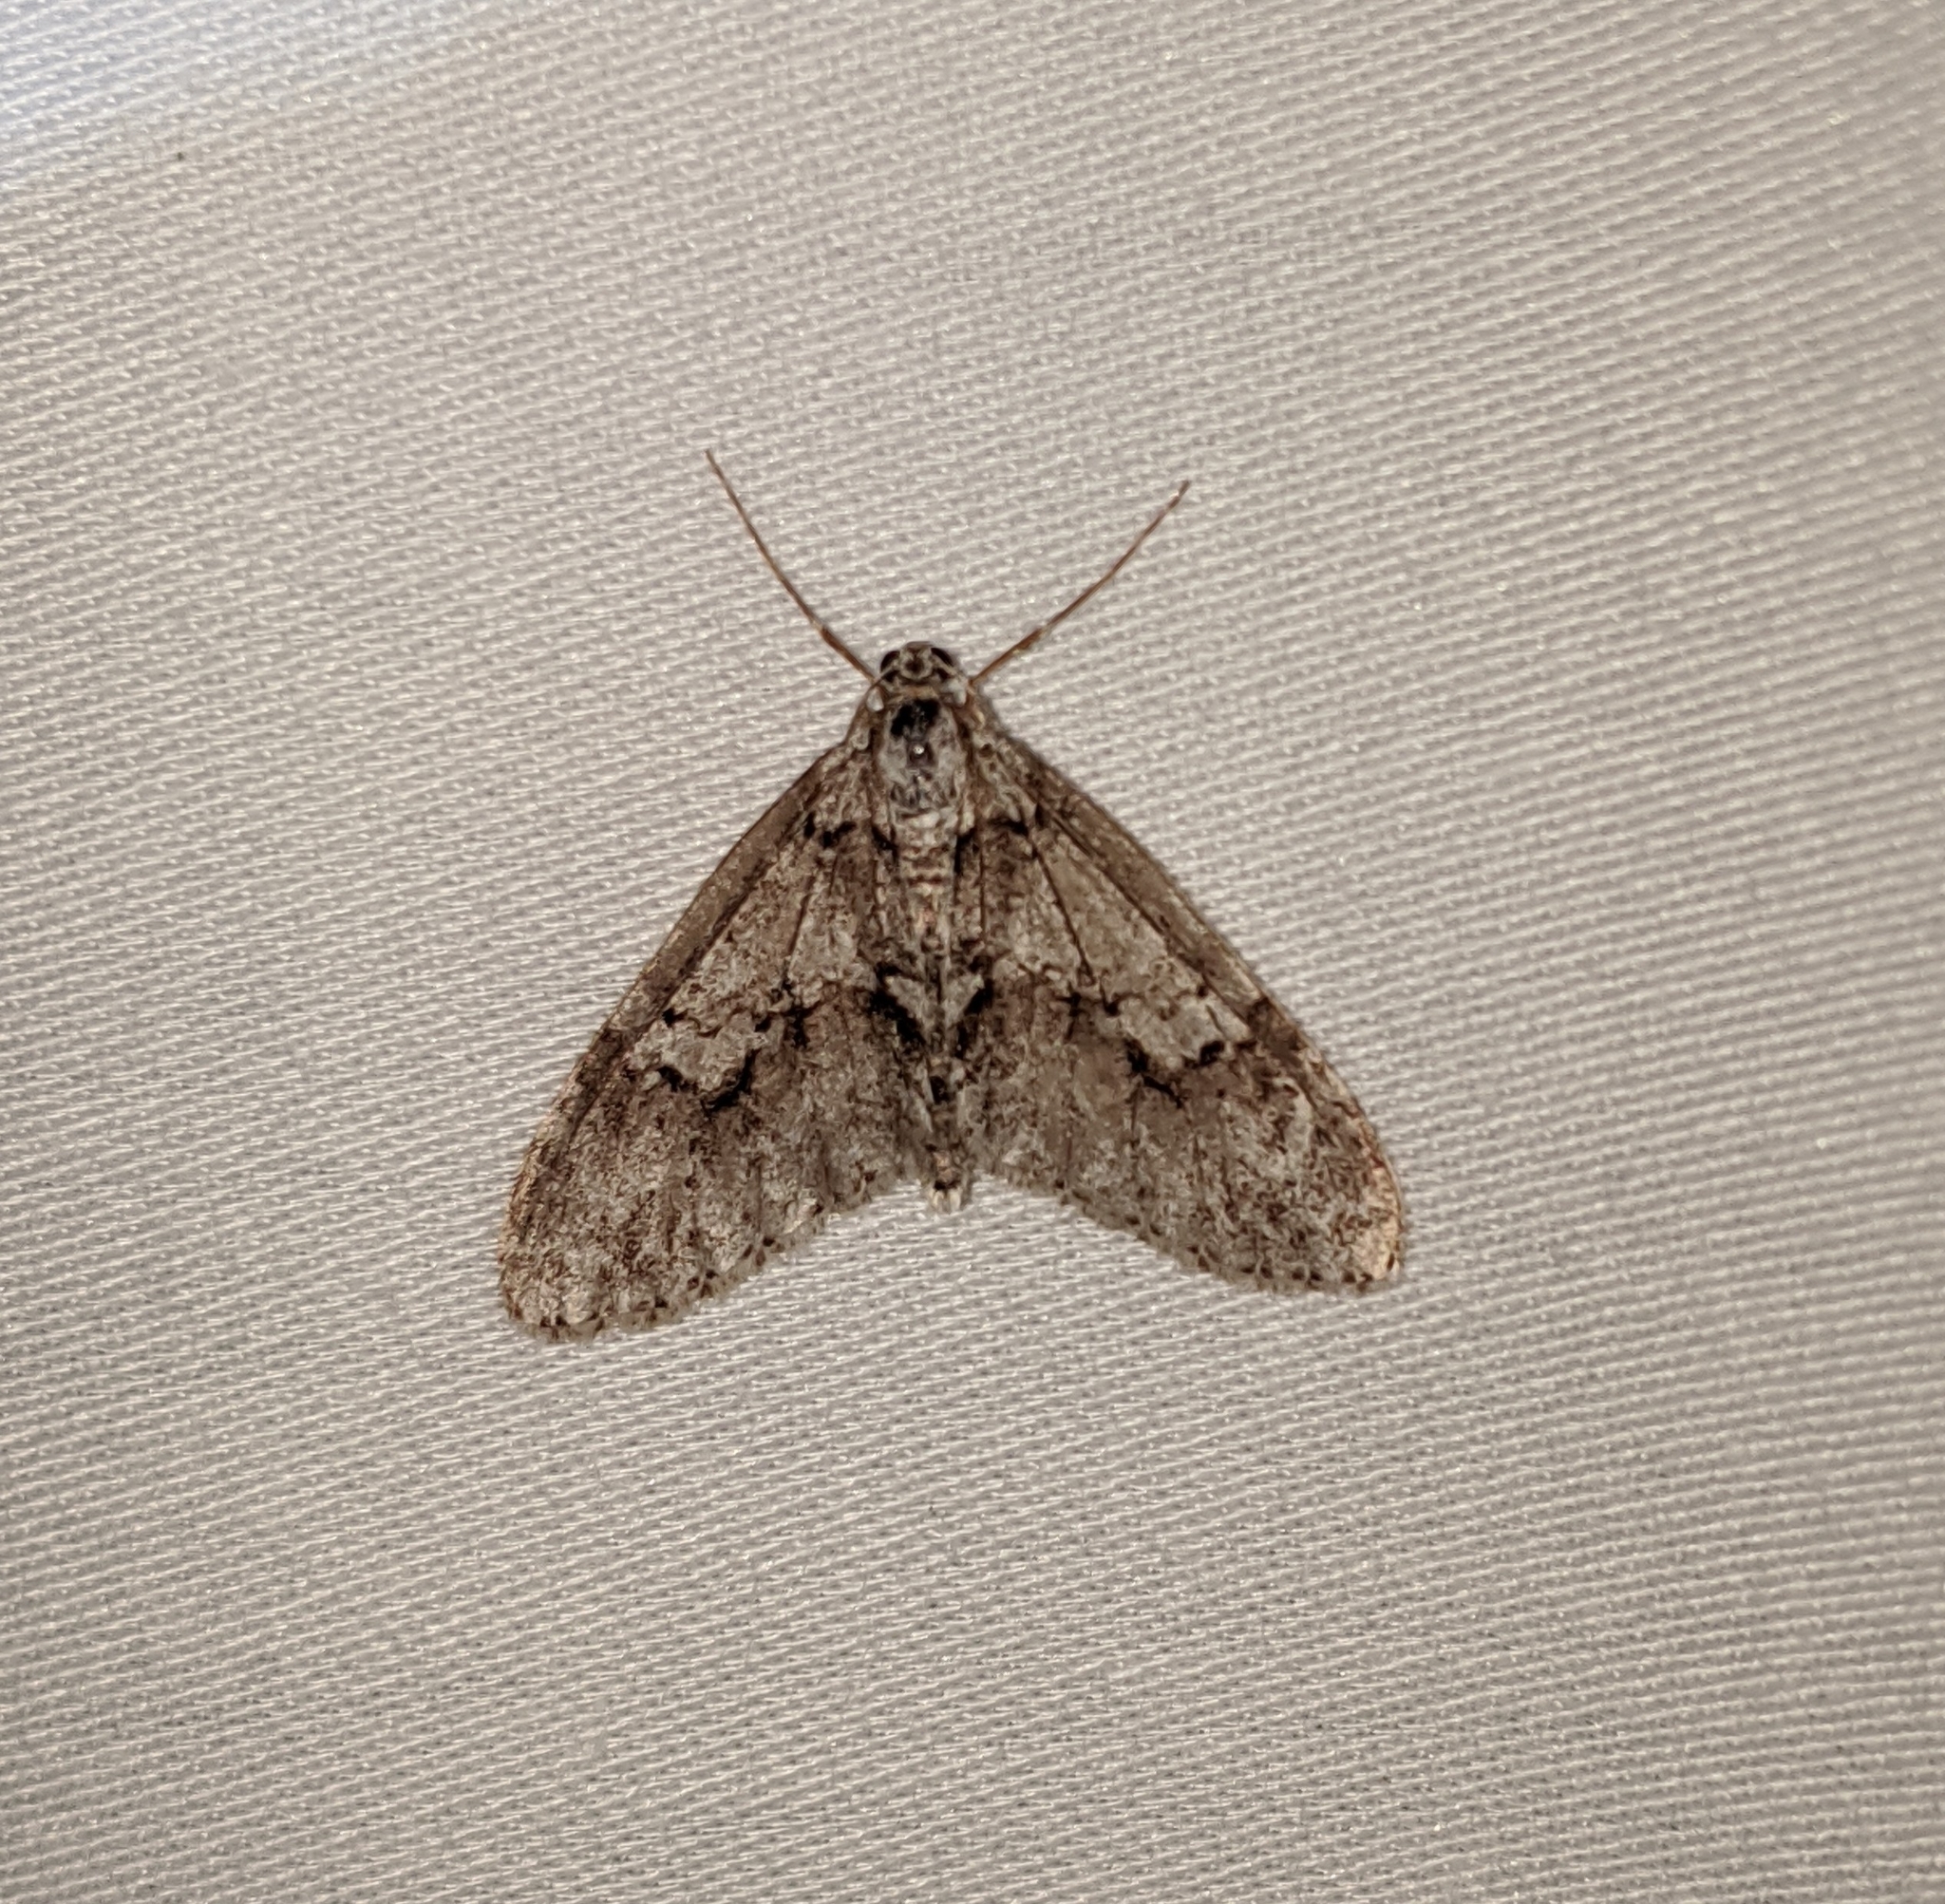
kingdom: Animalia
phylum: Arthropoda
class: Insecta
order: Lepidoptera
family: Geometridae
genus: Cladara
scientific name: Cladara limitaria
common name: Mottled gray carpet
